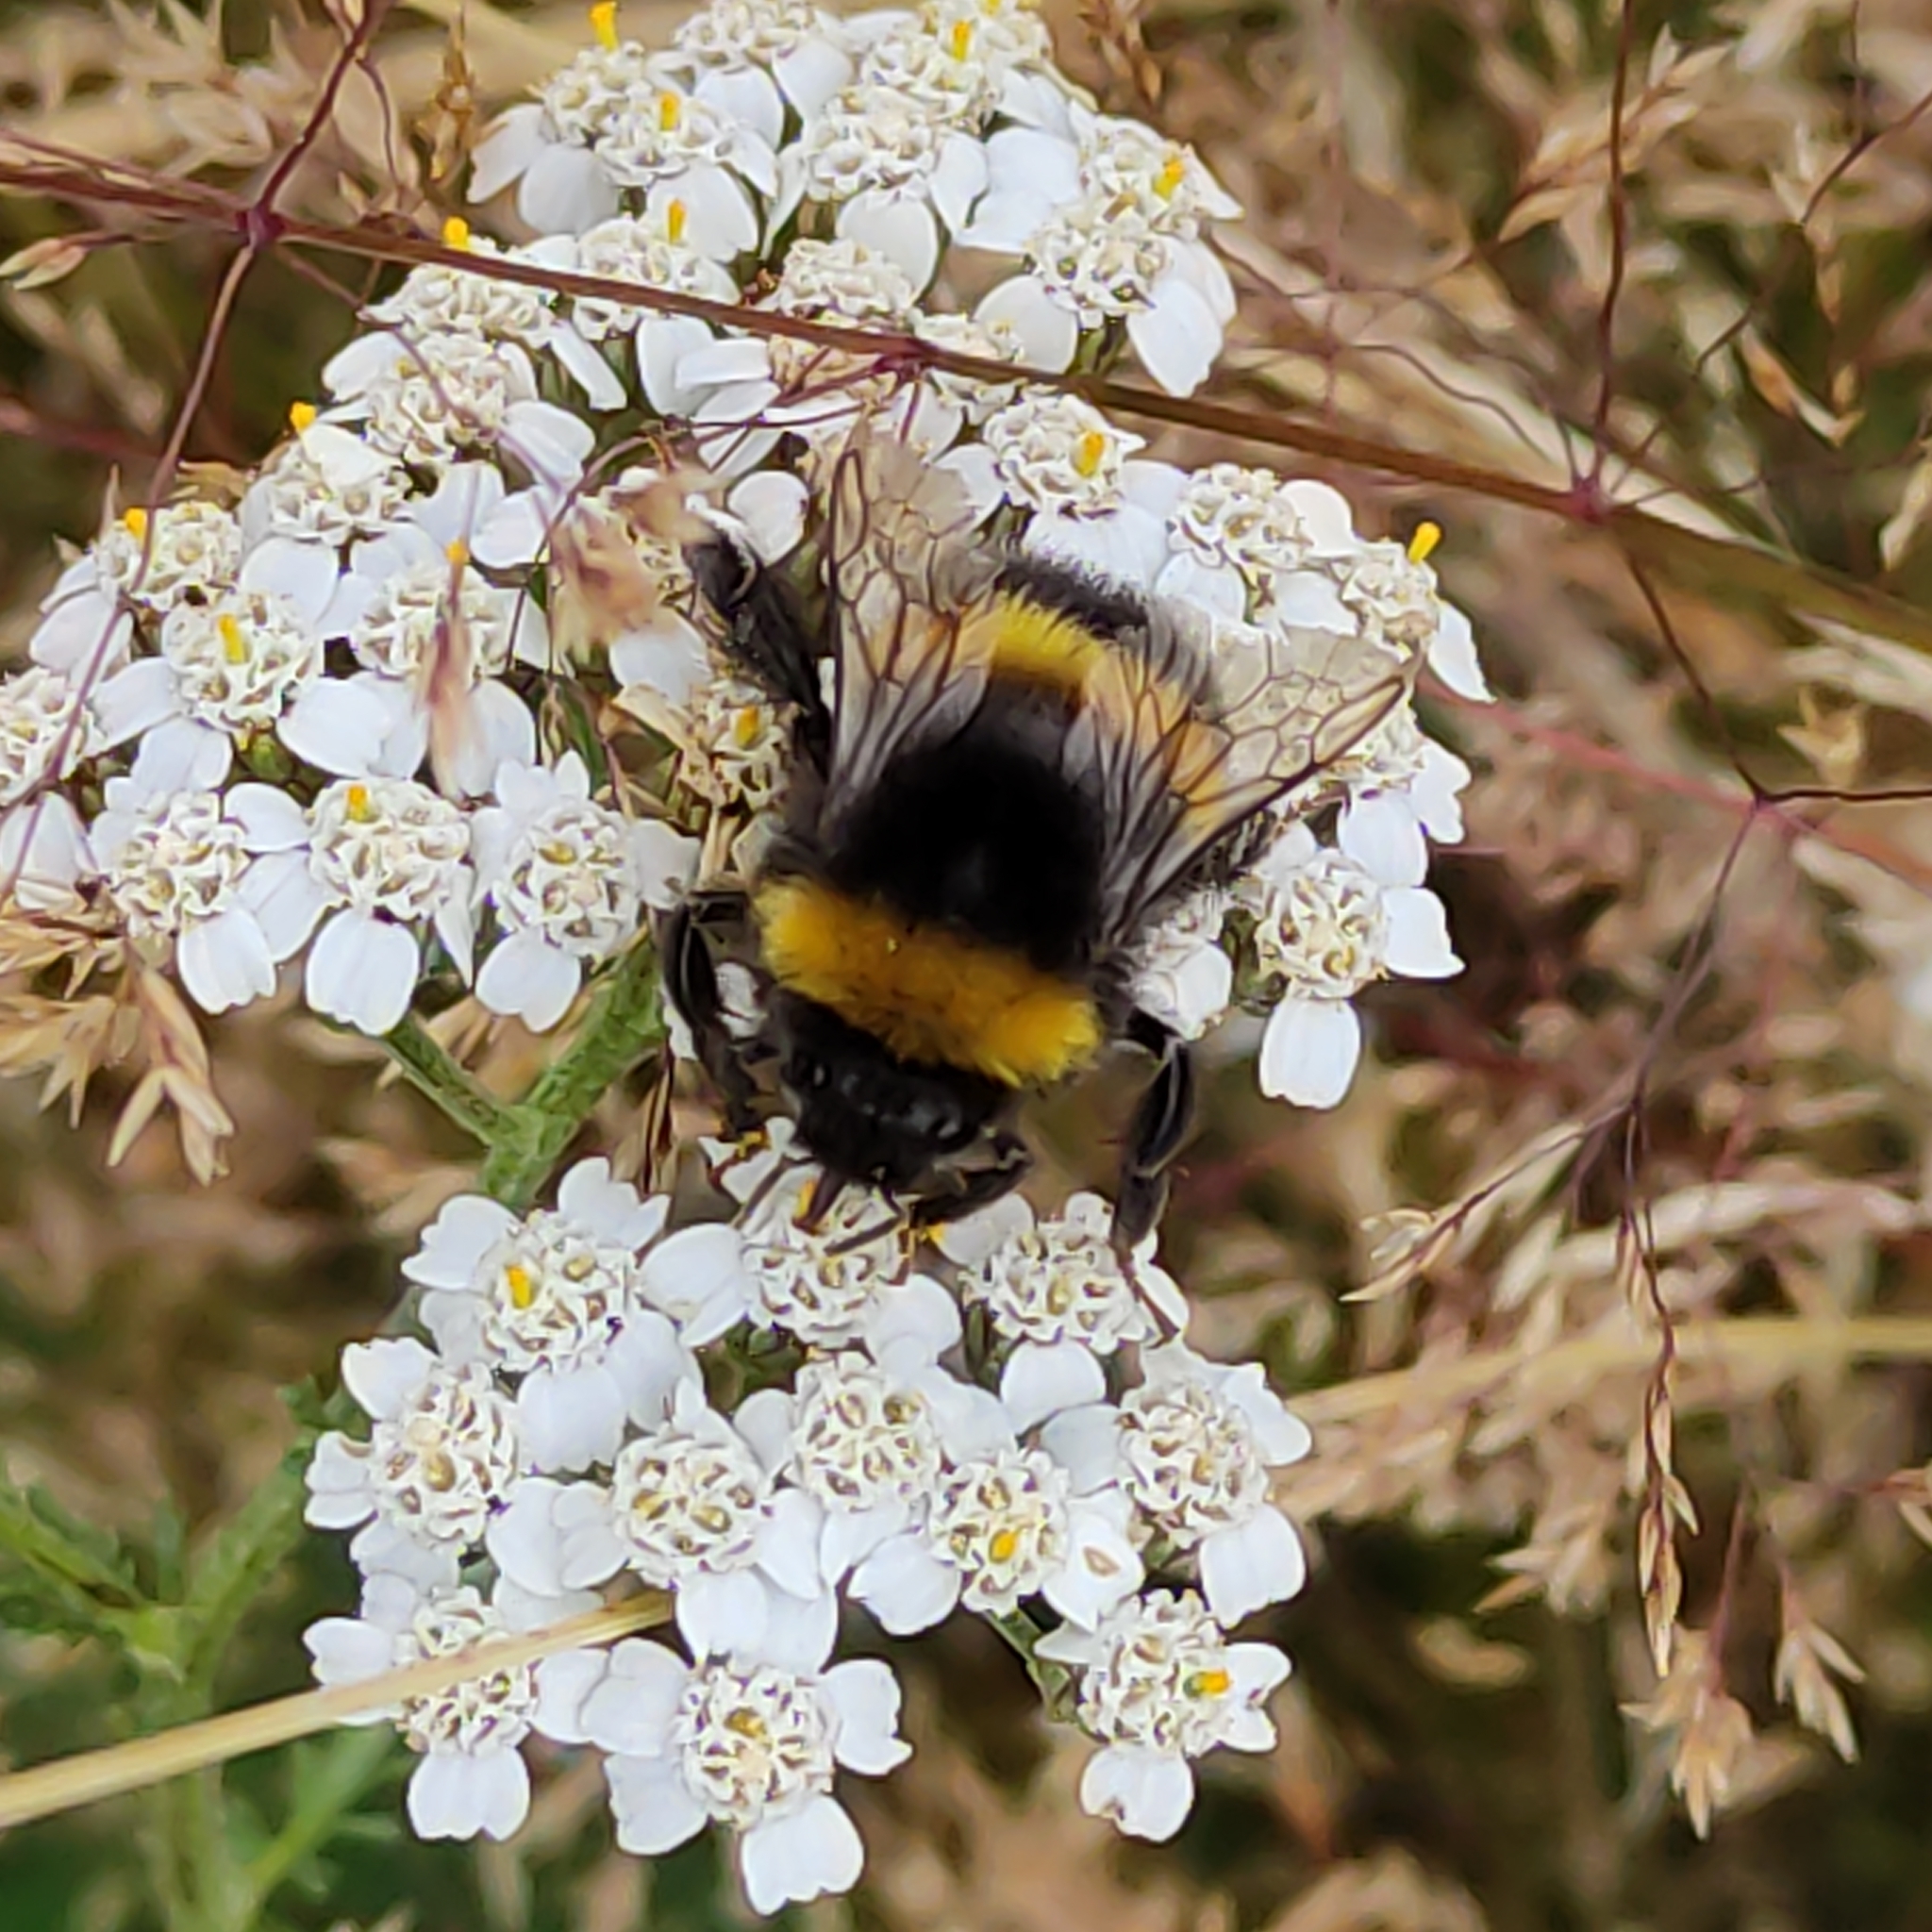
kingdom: Animalia
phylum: Arthropoda
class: Insecta
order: Hymenoptera
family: Apidae
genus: Bombus
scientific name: Bombus terrestris
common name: Buff-tailed bumblebee
